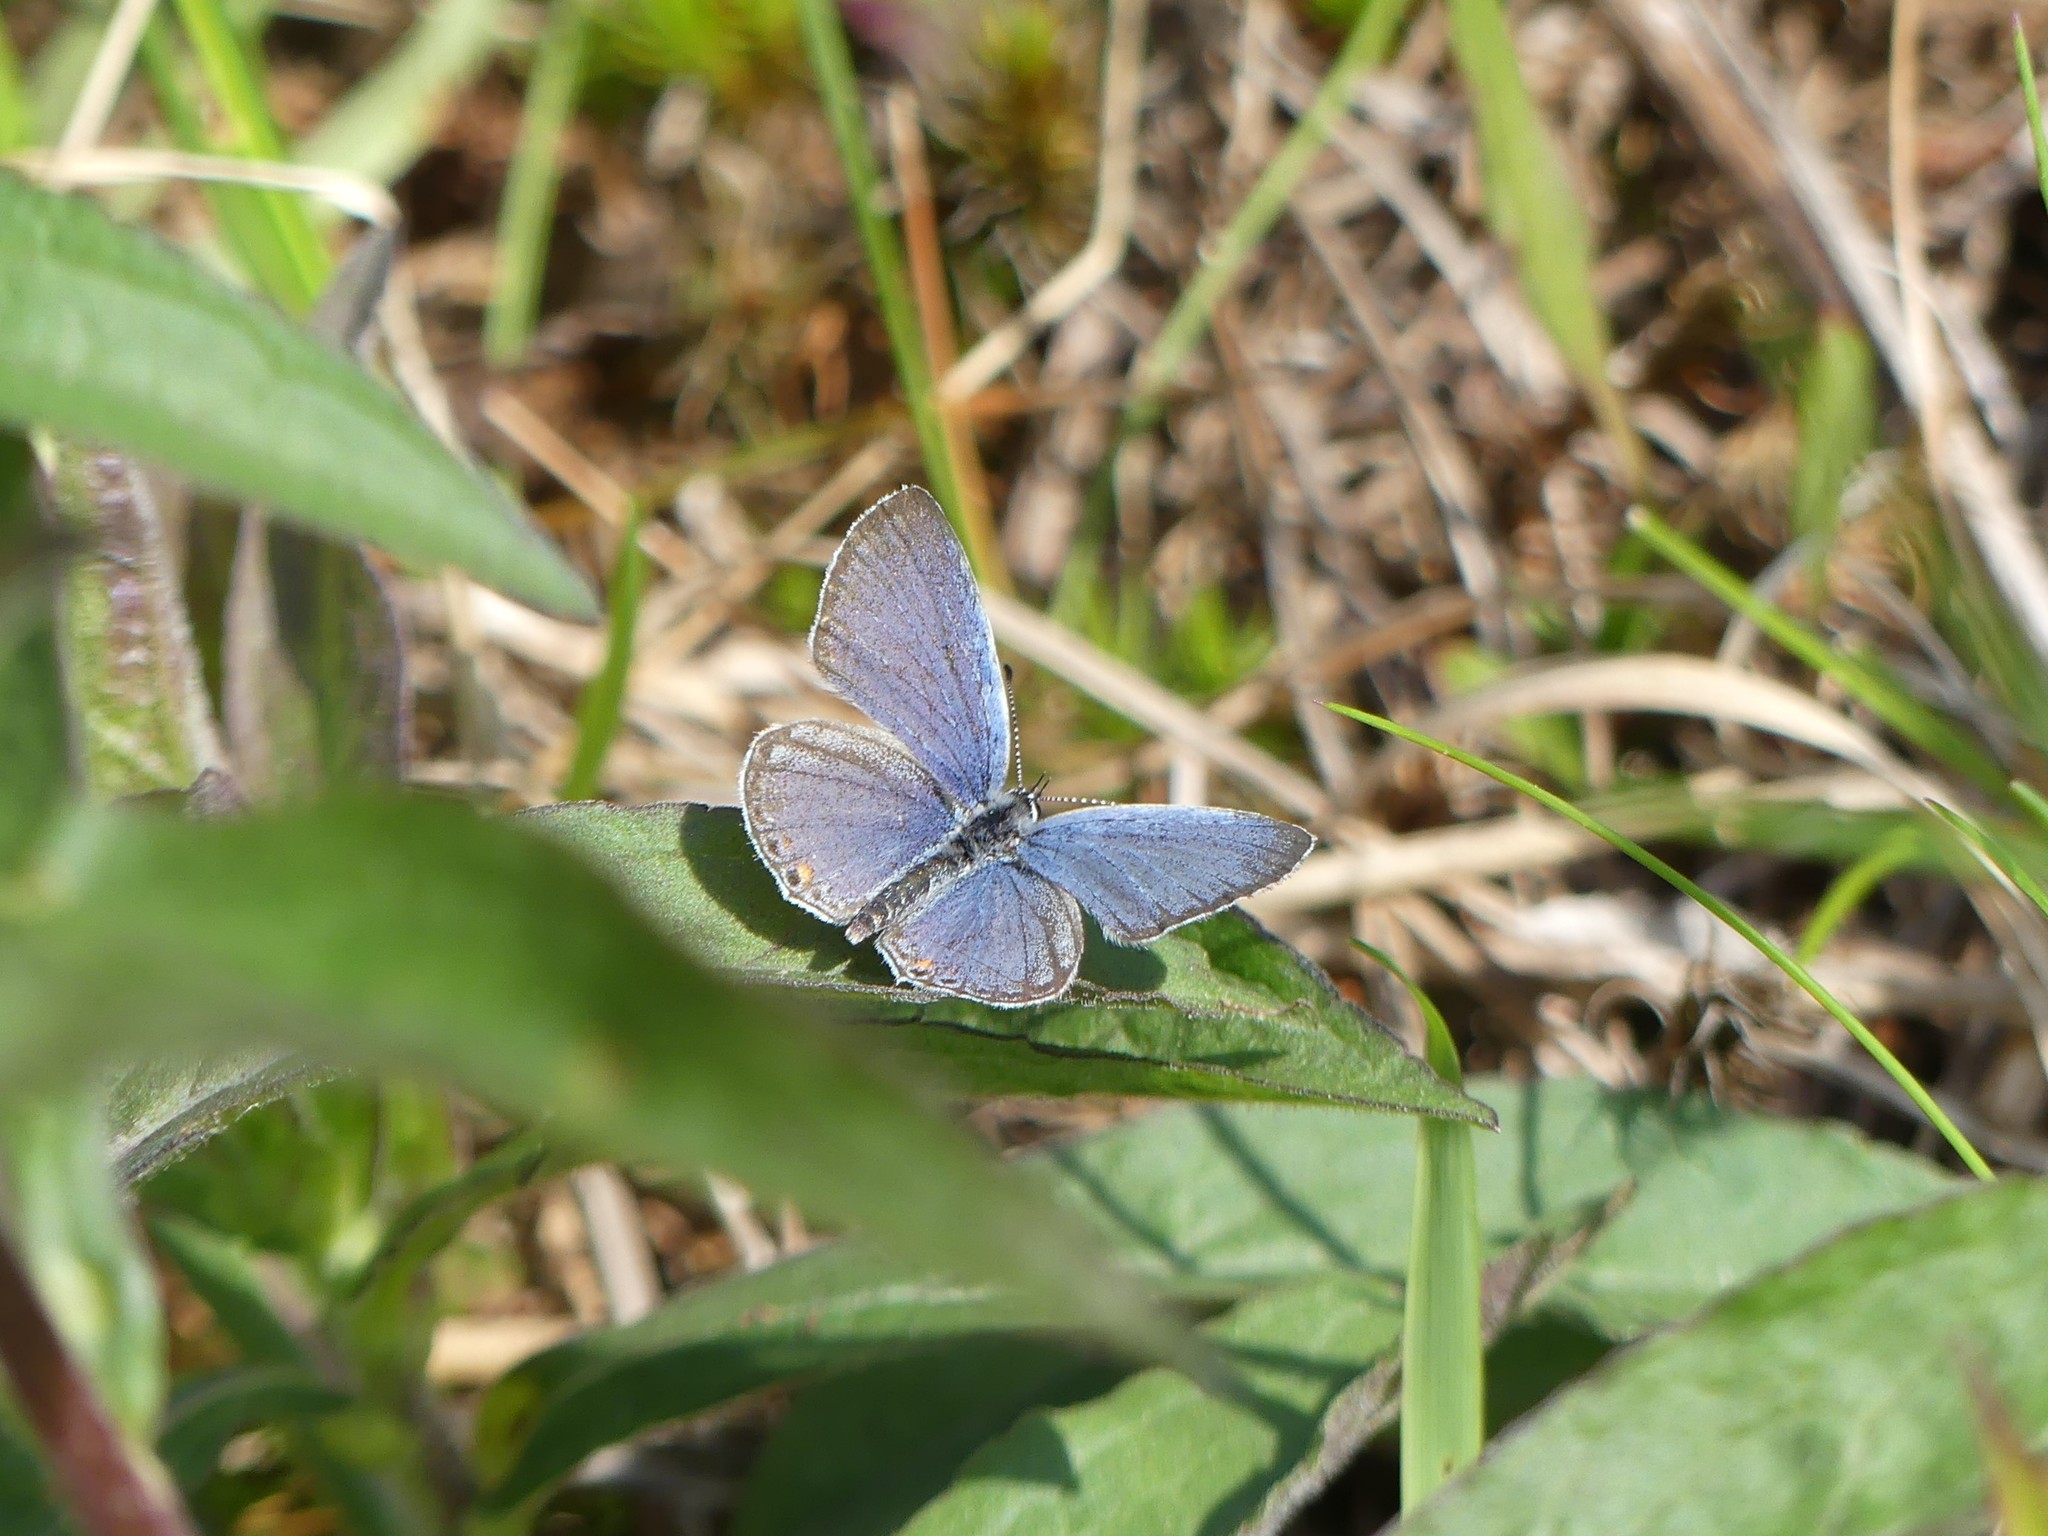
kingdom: Animalia
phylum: Arthropoda
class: Insecta
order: Lepidoptera
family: Lycaenidae
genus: Elkalyce
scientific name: Elkalyce comyntas
